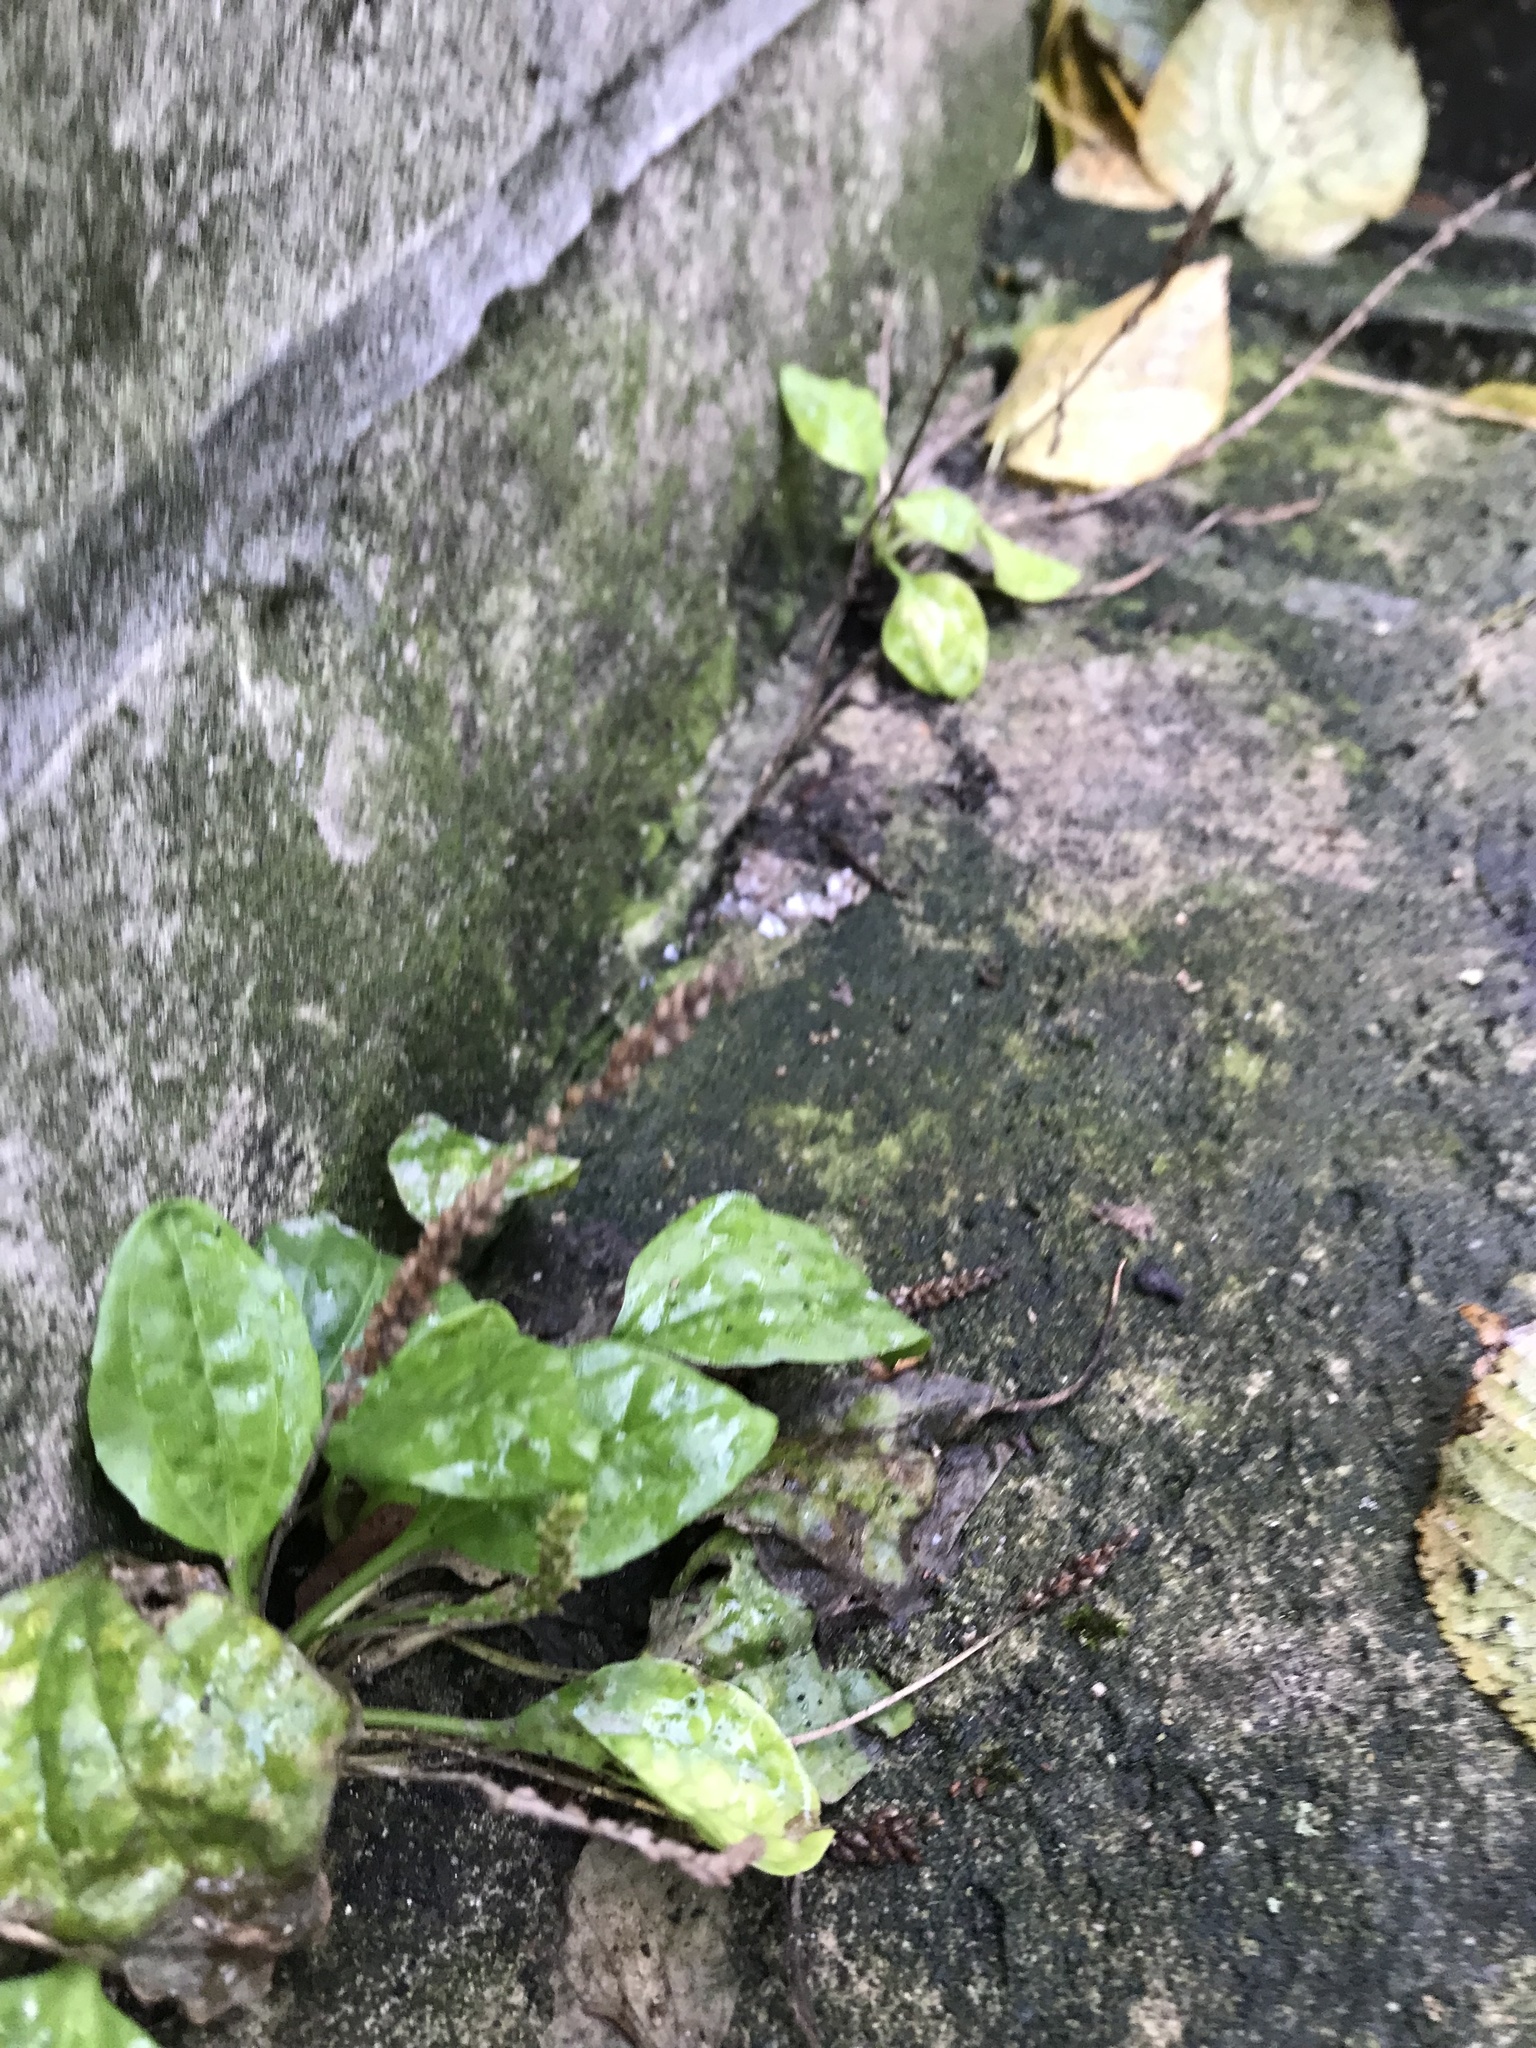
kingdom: Plantae
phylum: Tracheophyta
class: Magnoliopsida
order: Lamiales
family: Plantaginaceae
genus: Plantago
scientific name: Plantago major
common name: Common plantain
